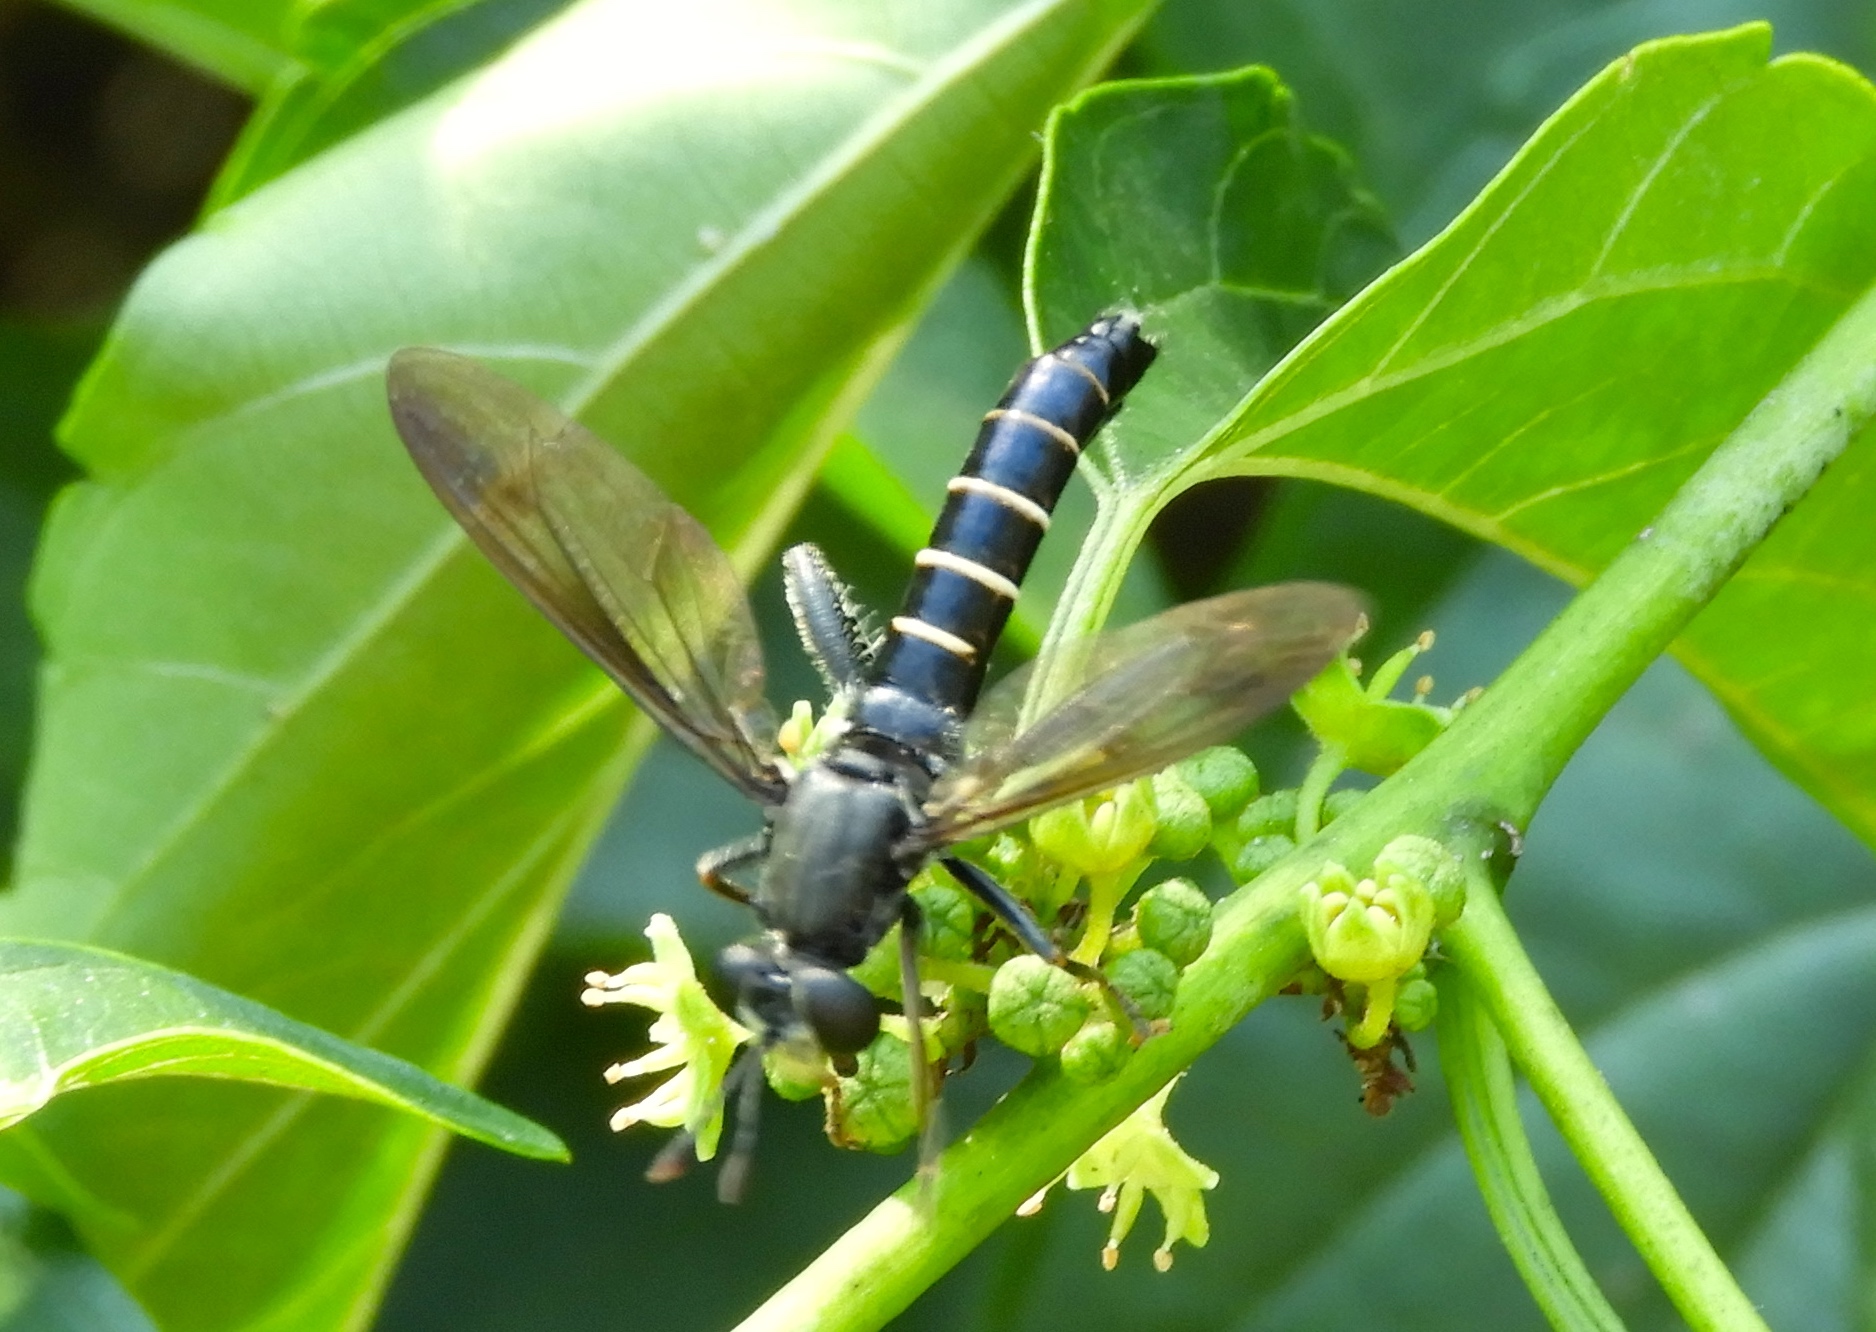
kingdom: Animalia
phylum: Arthropoda
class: Insecta
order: Diptera
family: Mydidae
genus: Mydas
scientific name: Mydas
